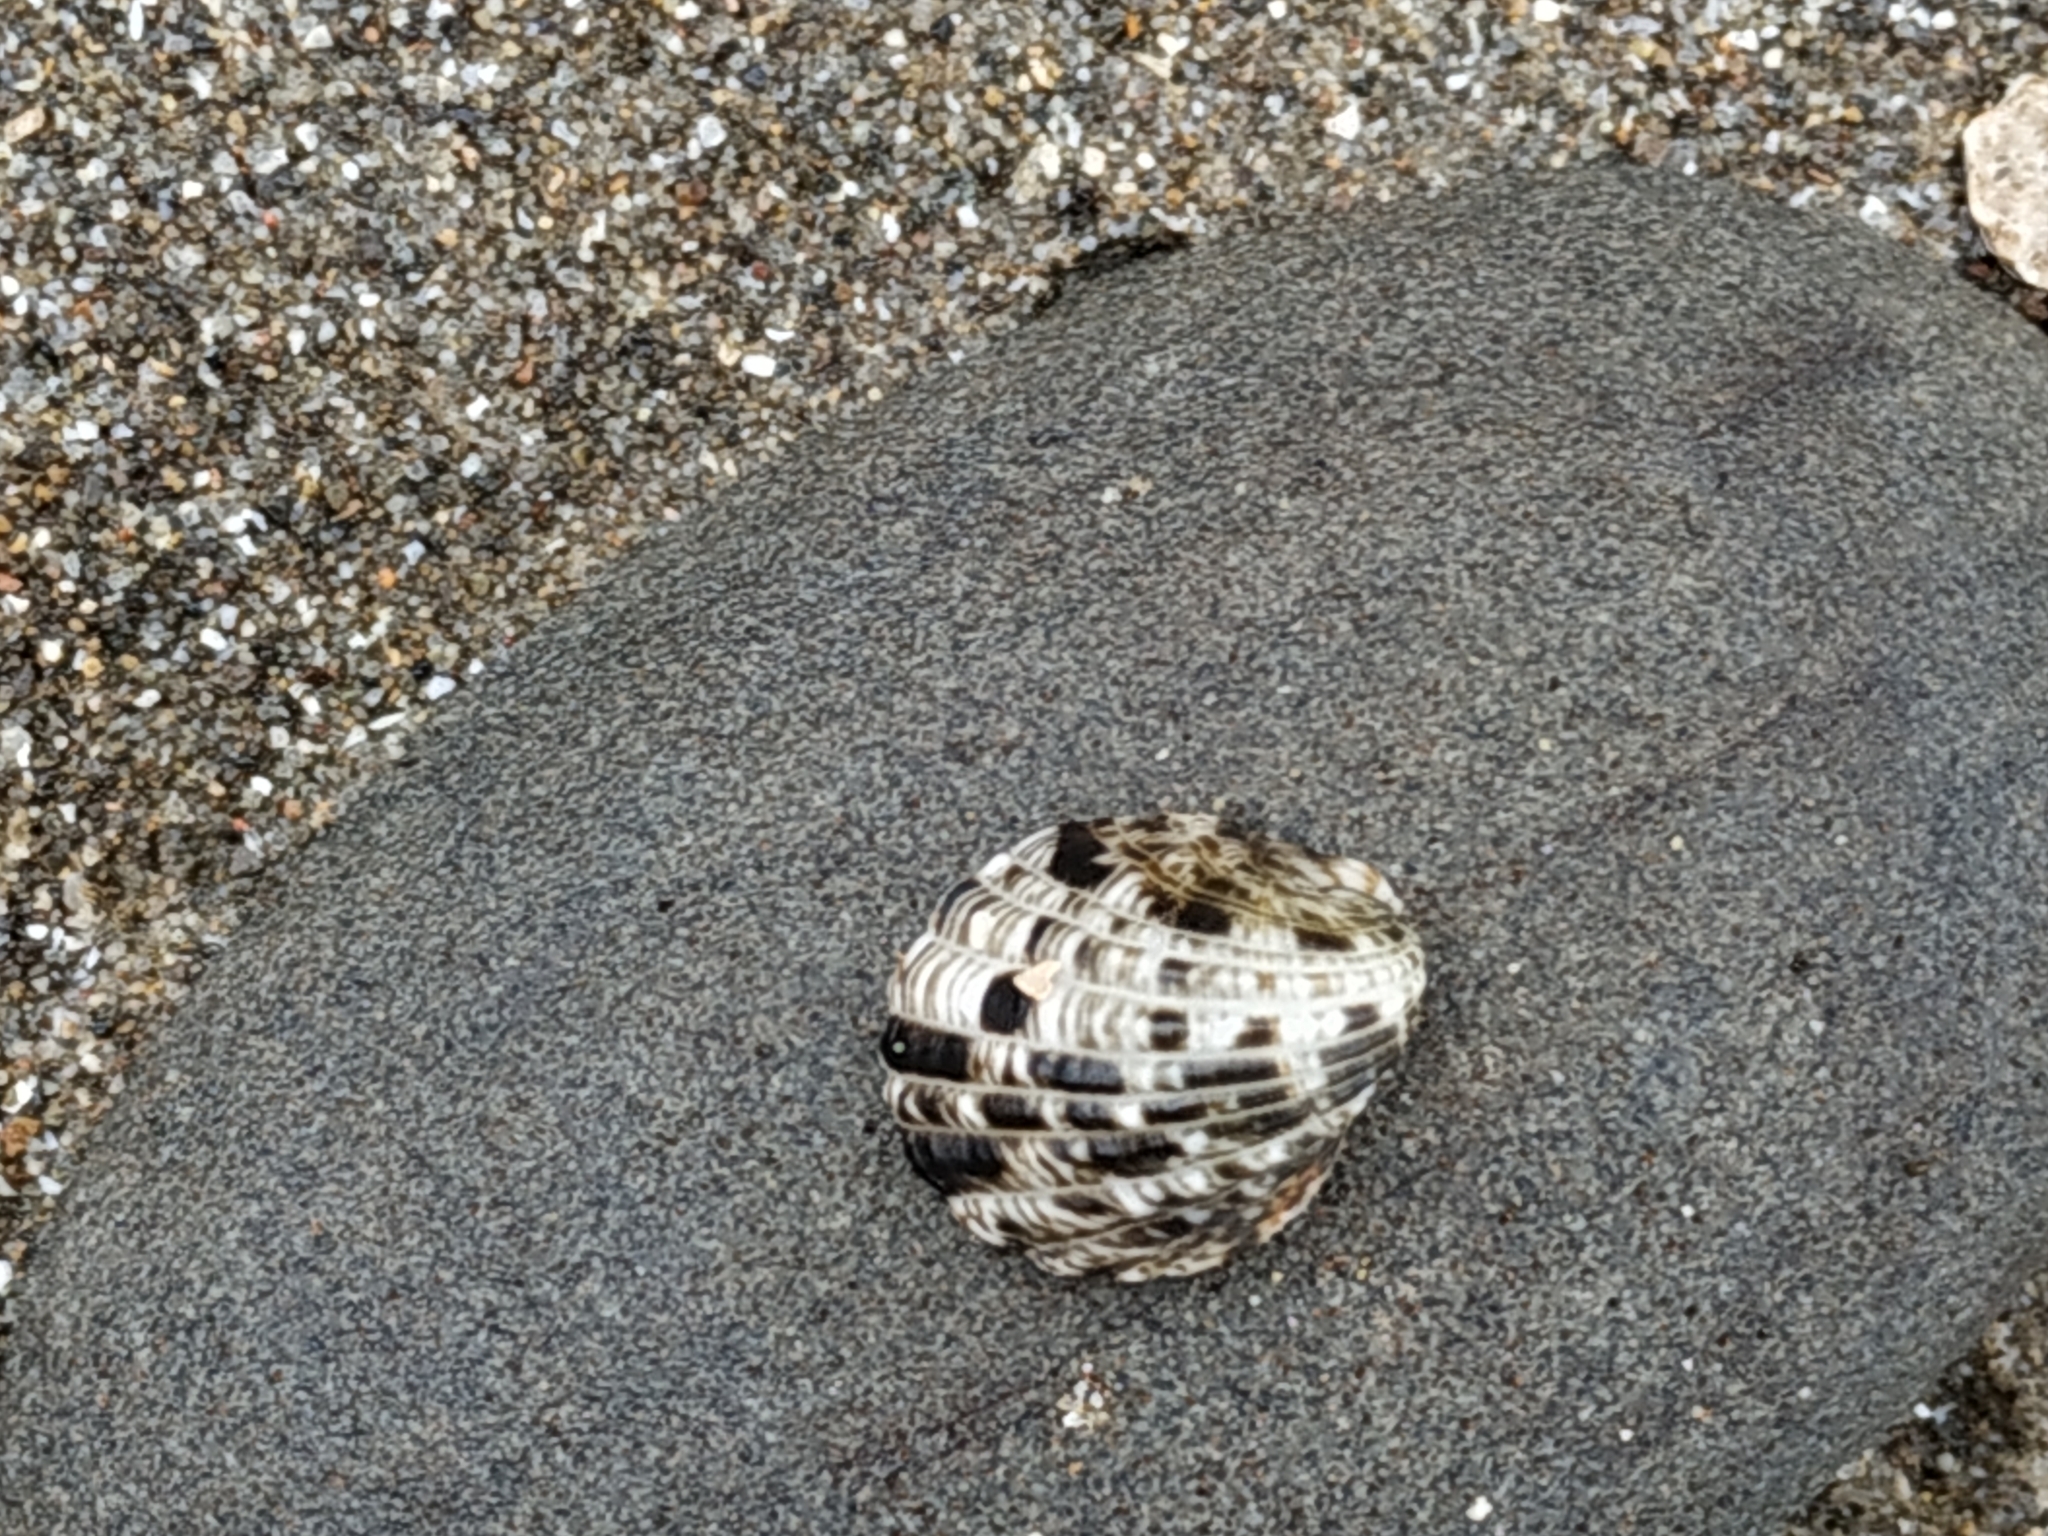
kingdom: Animalia
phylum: Mollusca
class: Gastropoda
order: Cycloneritida
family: Neritidae
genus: Nerita
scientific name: Nerita albicilla
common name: Blotched nerite
